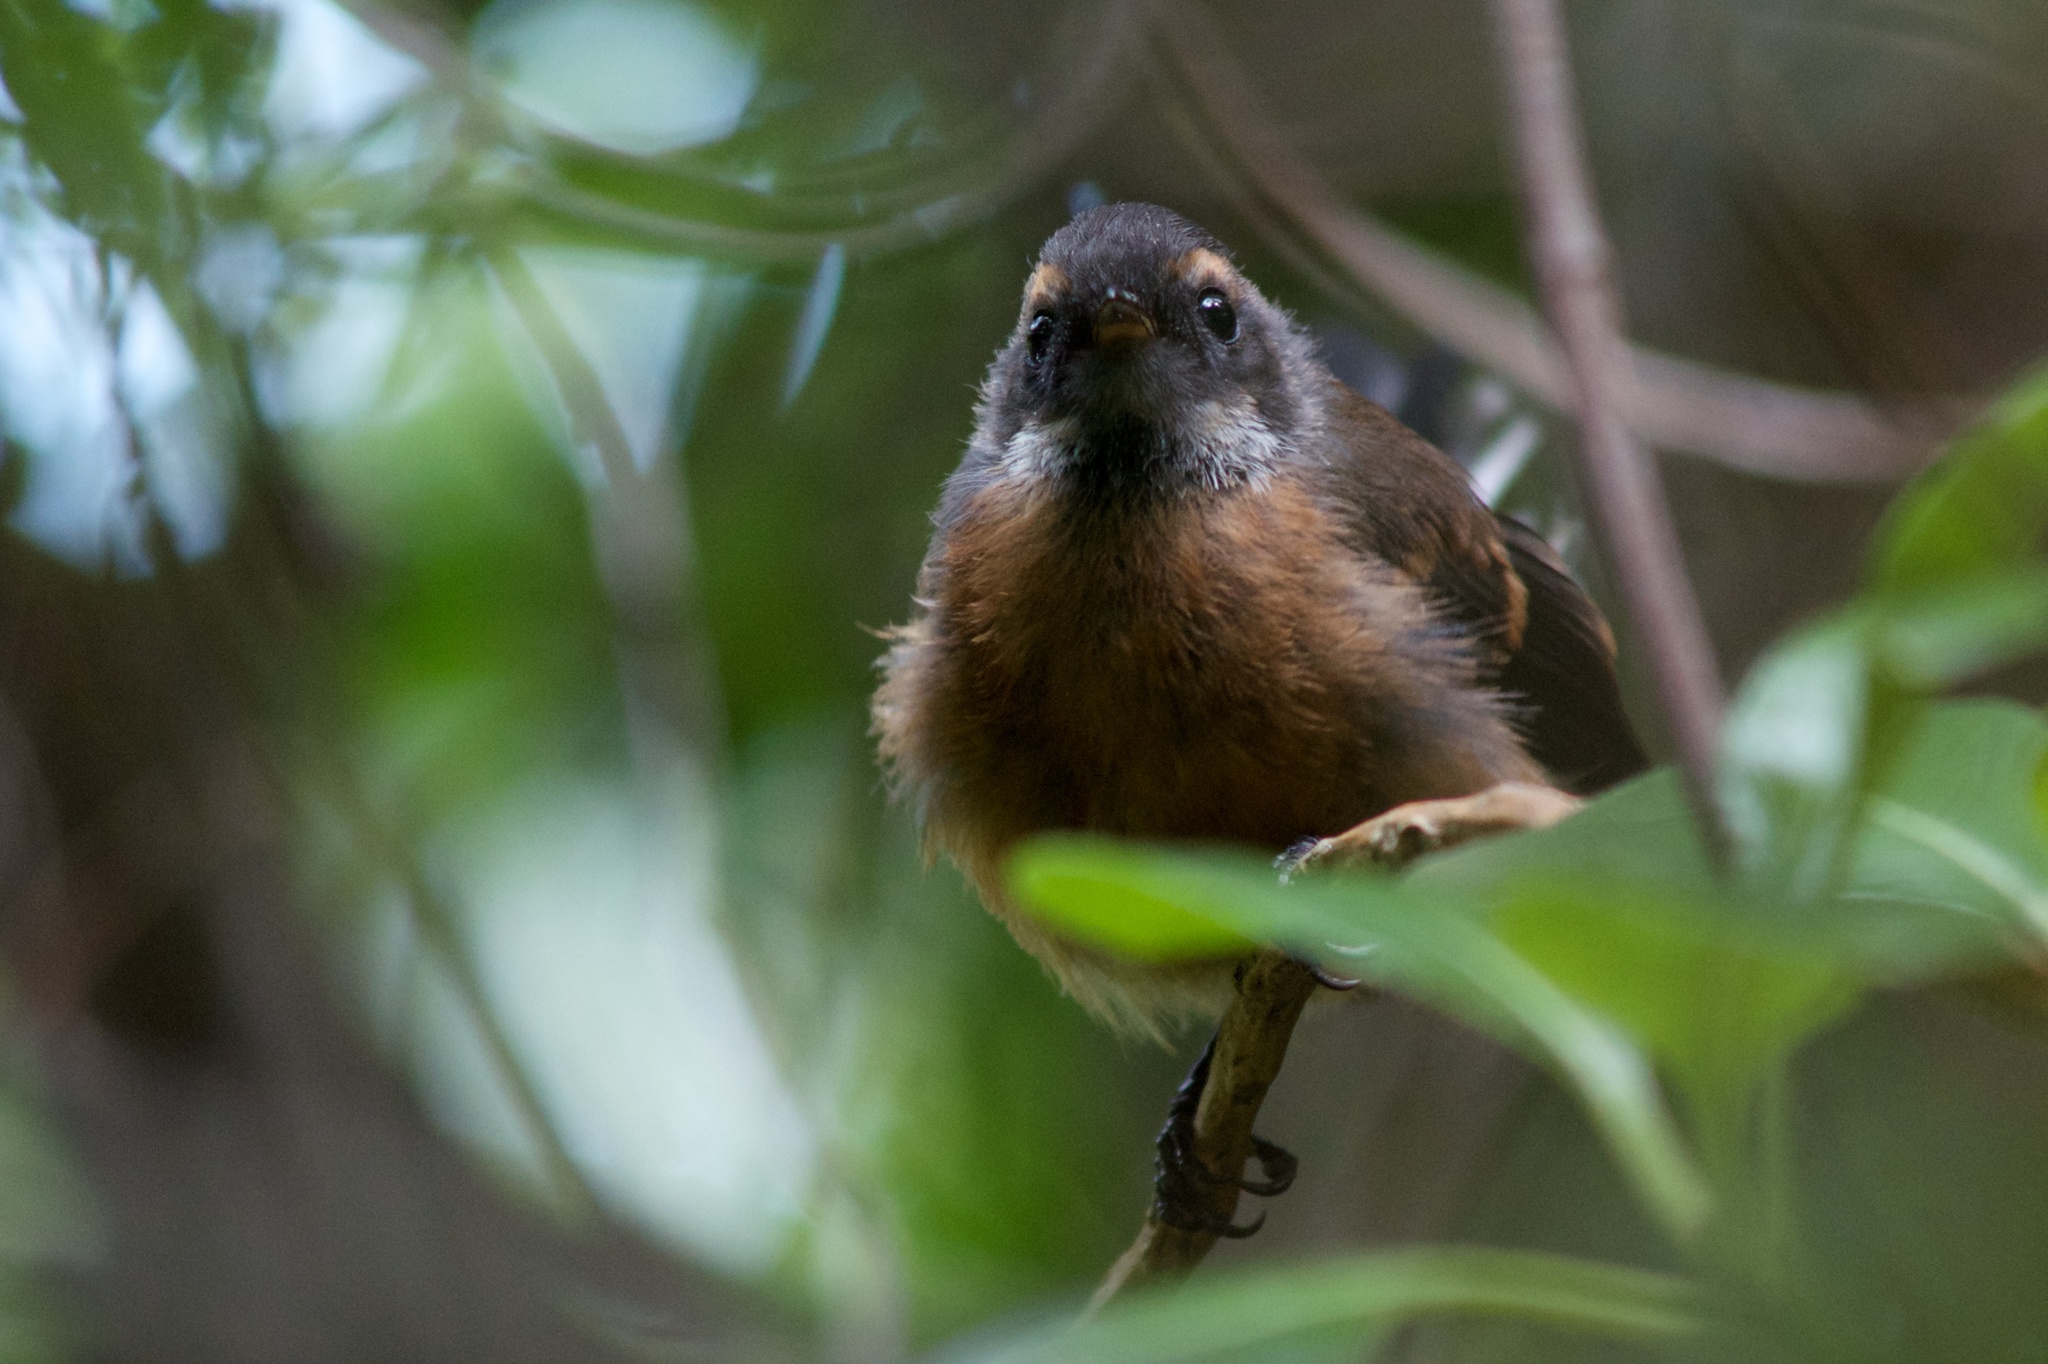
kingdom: Animalia
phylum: Chordata
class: Aves
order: Passeriformes
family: Rhipiduridae
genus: Rhipidura
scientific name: Rhipidura fuliginosa
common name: New zealand fantail
